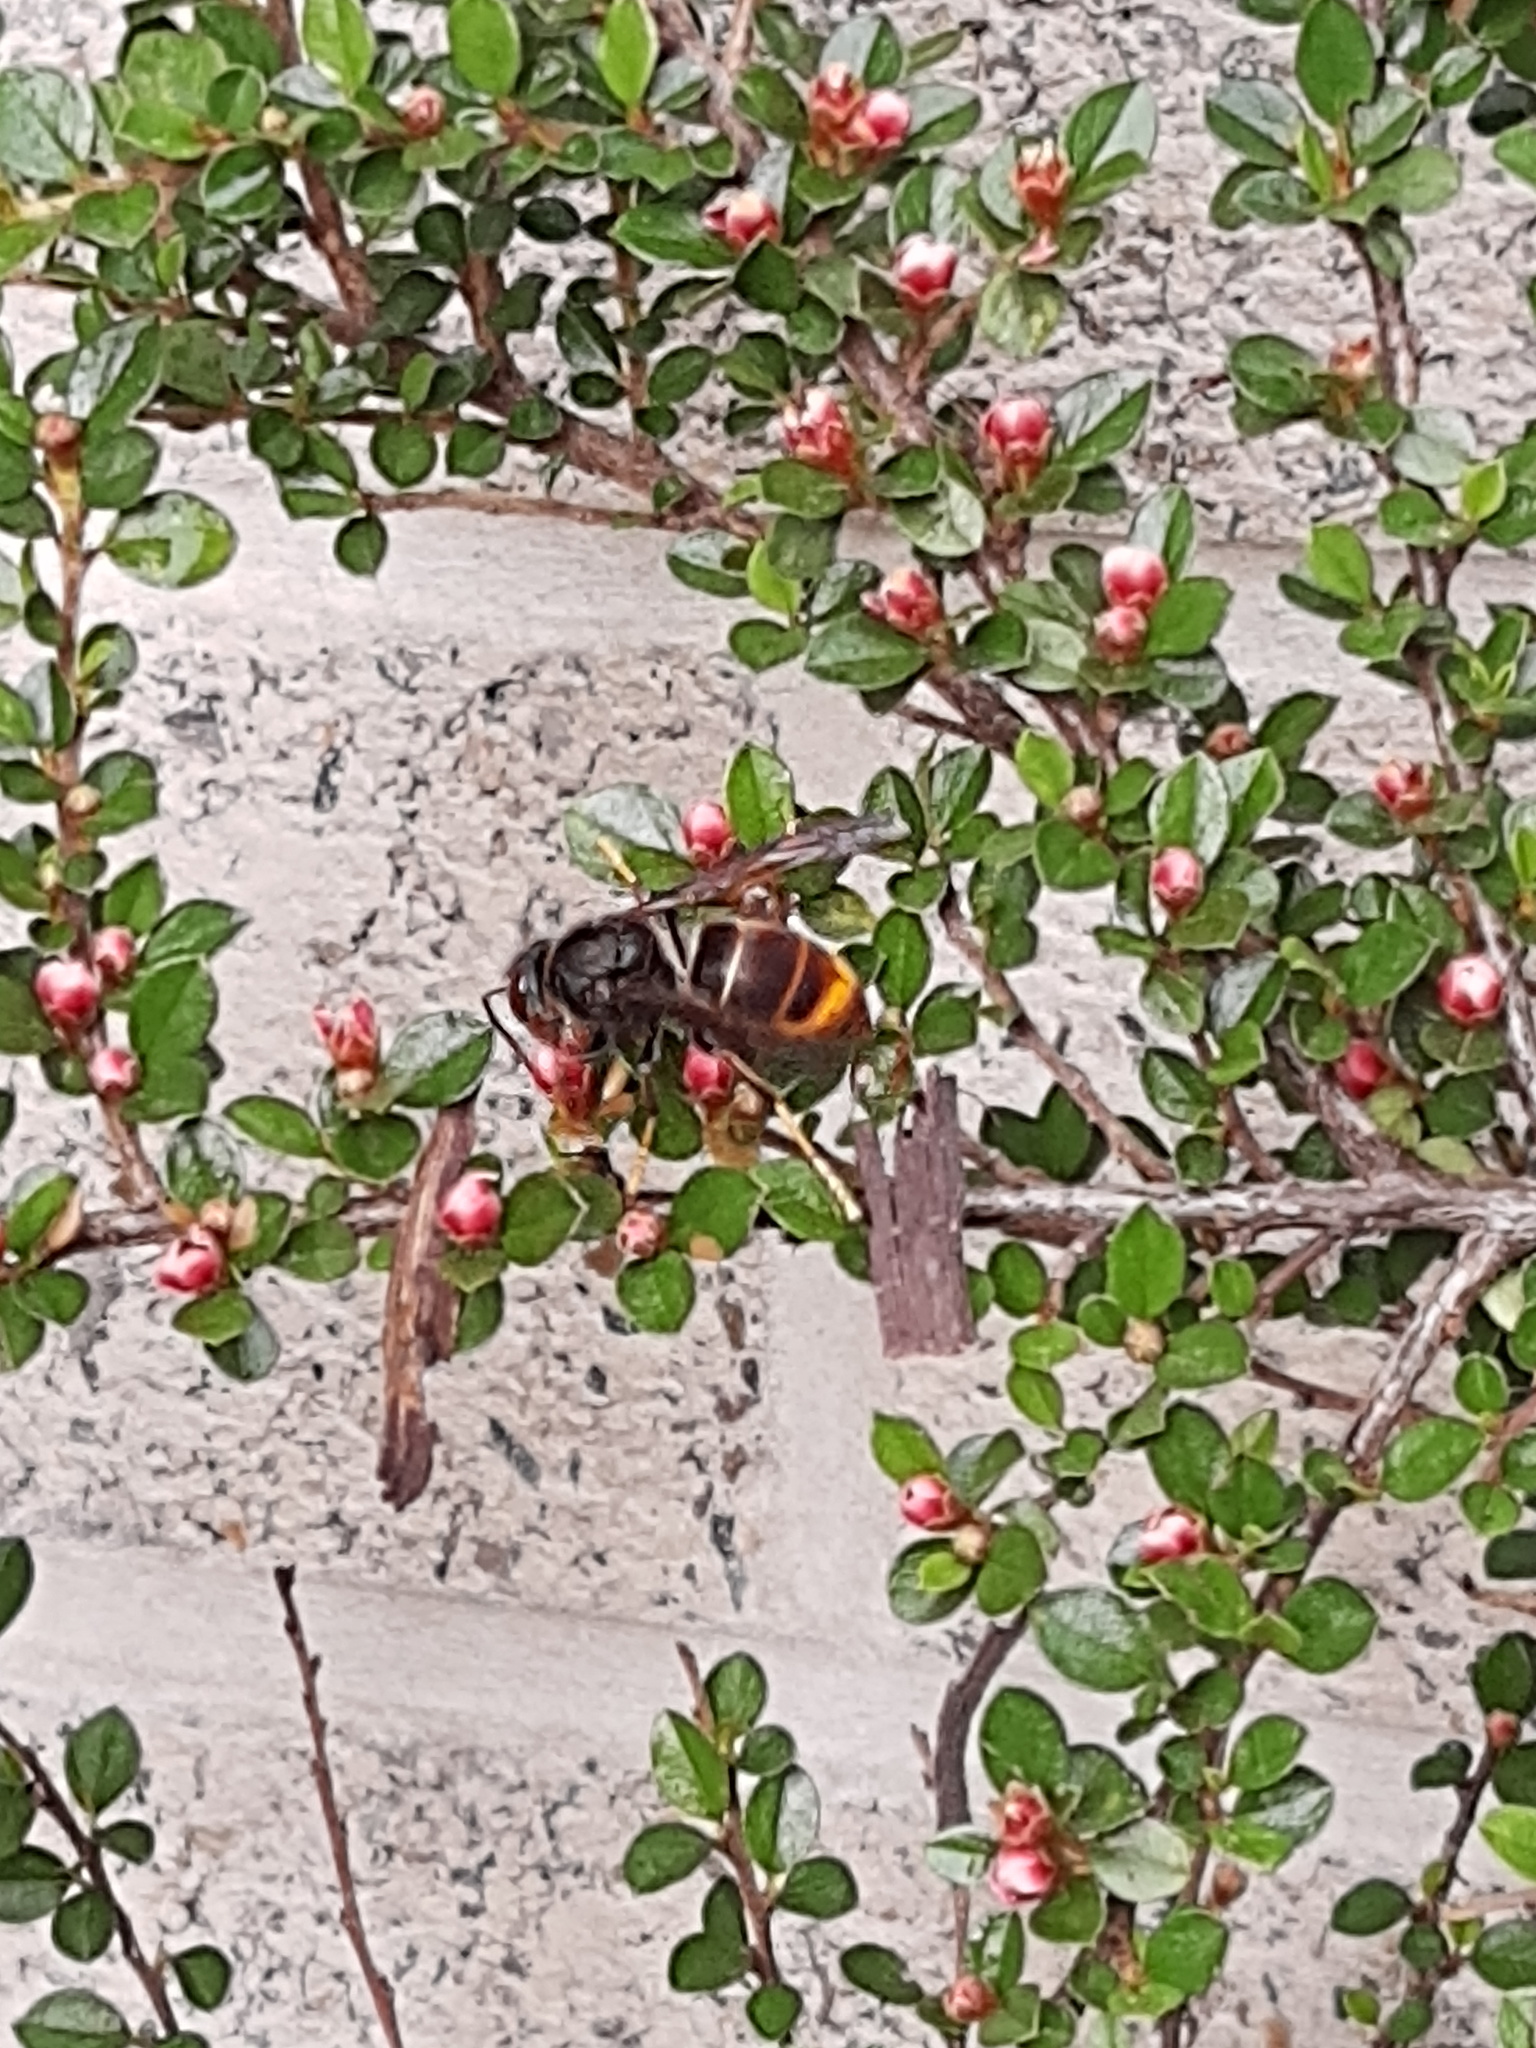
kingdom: Animalia
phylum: Arthropoda
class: Insecta
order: Hymenoptera
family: Vespidae
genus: Vespa
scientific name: Vespa velutina
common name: Asian hornet
